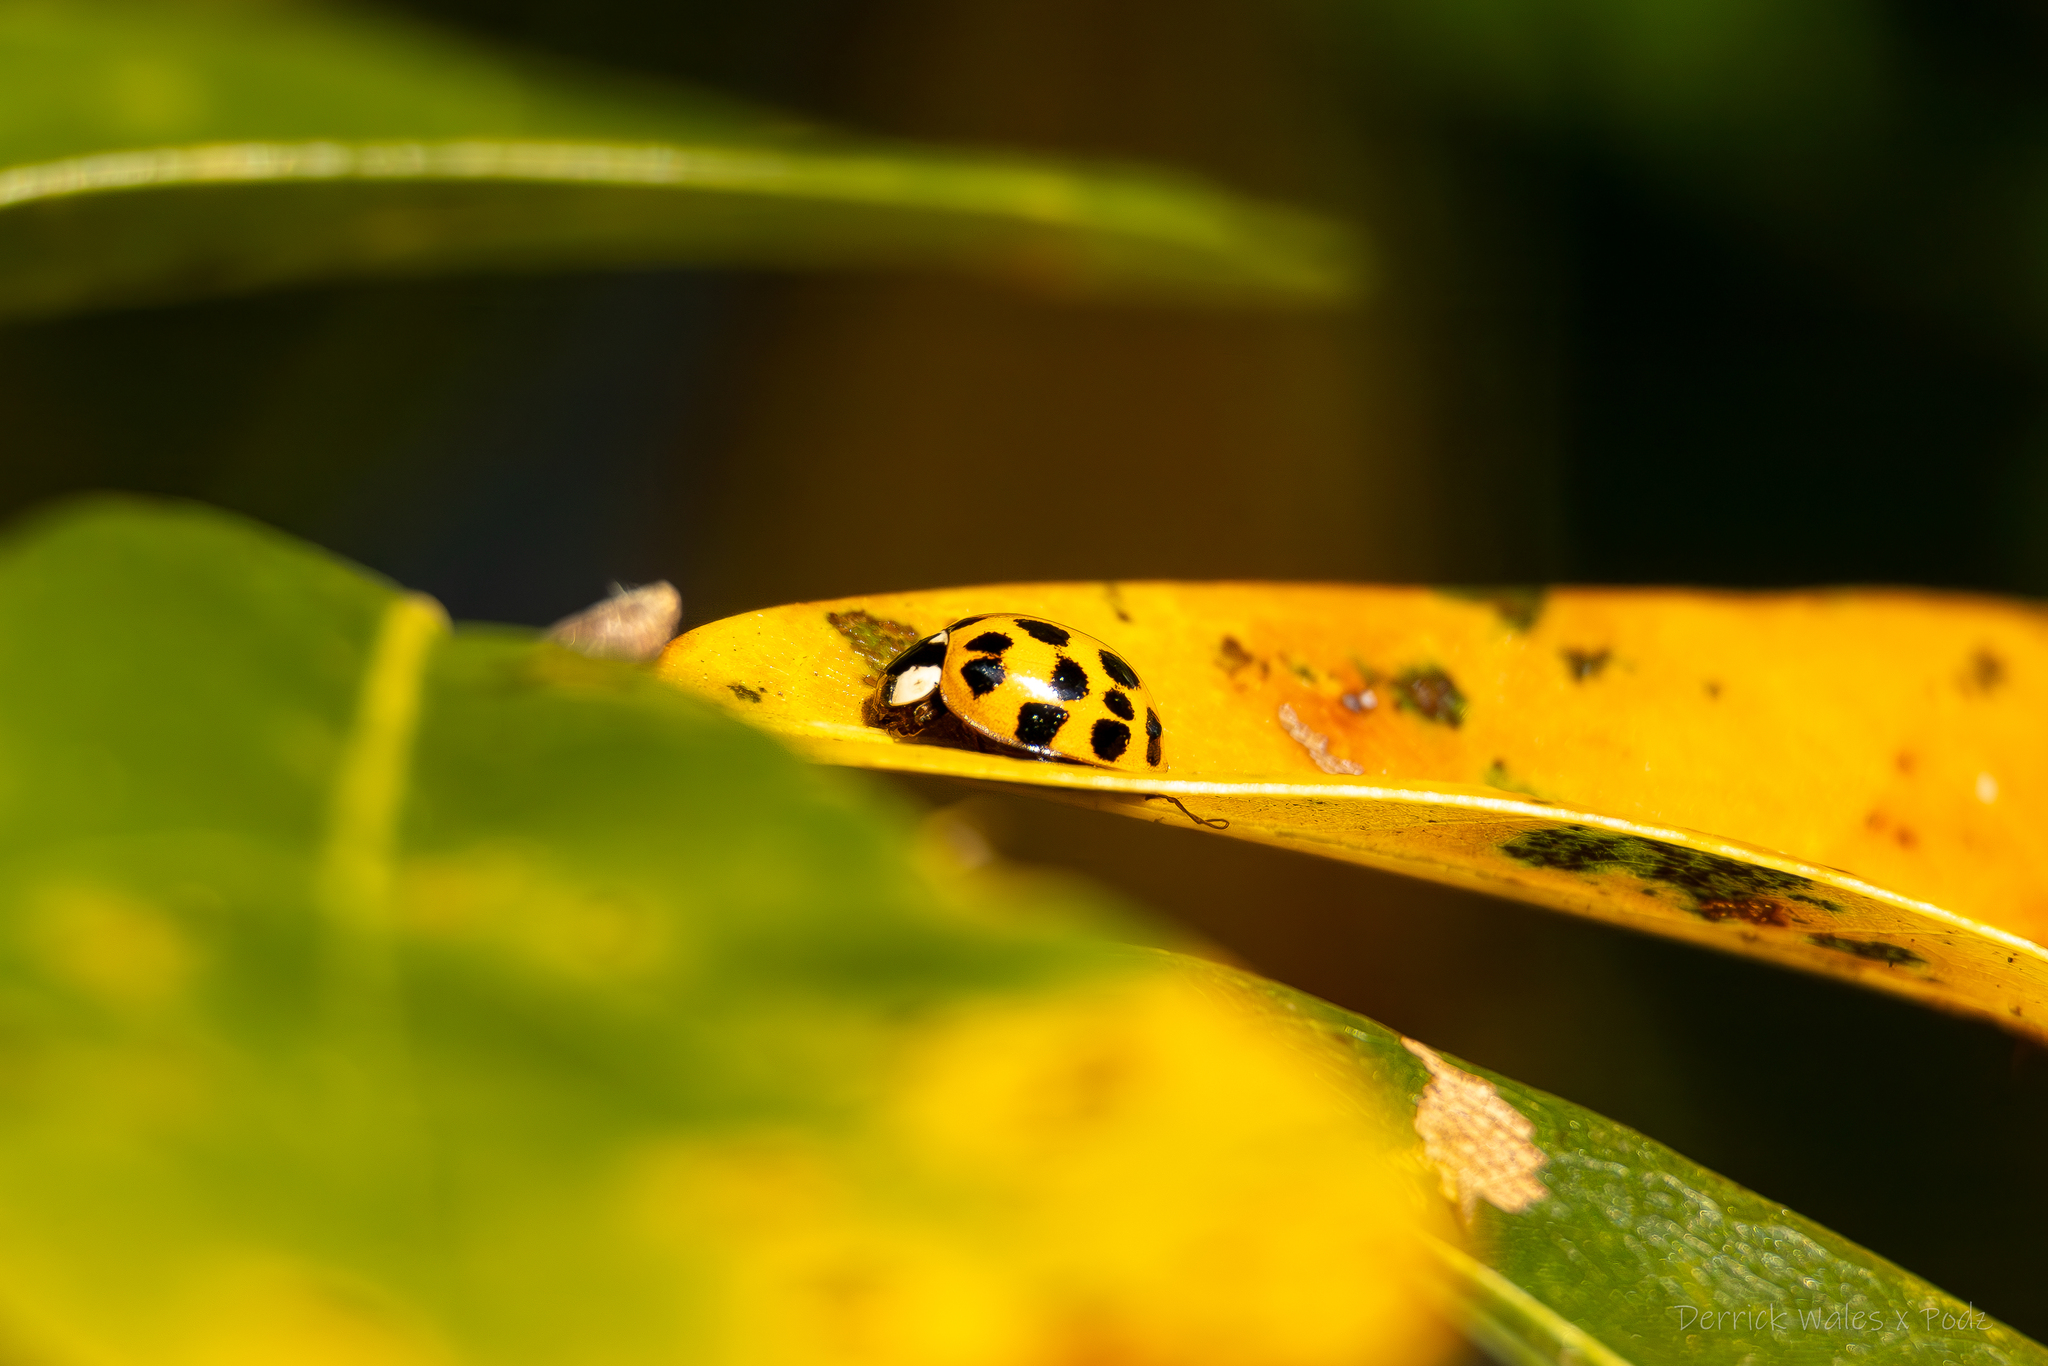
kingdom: Animalia
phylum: Arthropoda
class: Insecta
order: Coleoptera
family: Coccinellidae
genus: Harmonia
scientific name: Harmonia axyridis
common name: Harlequin ladybird
